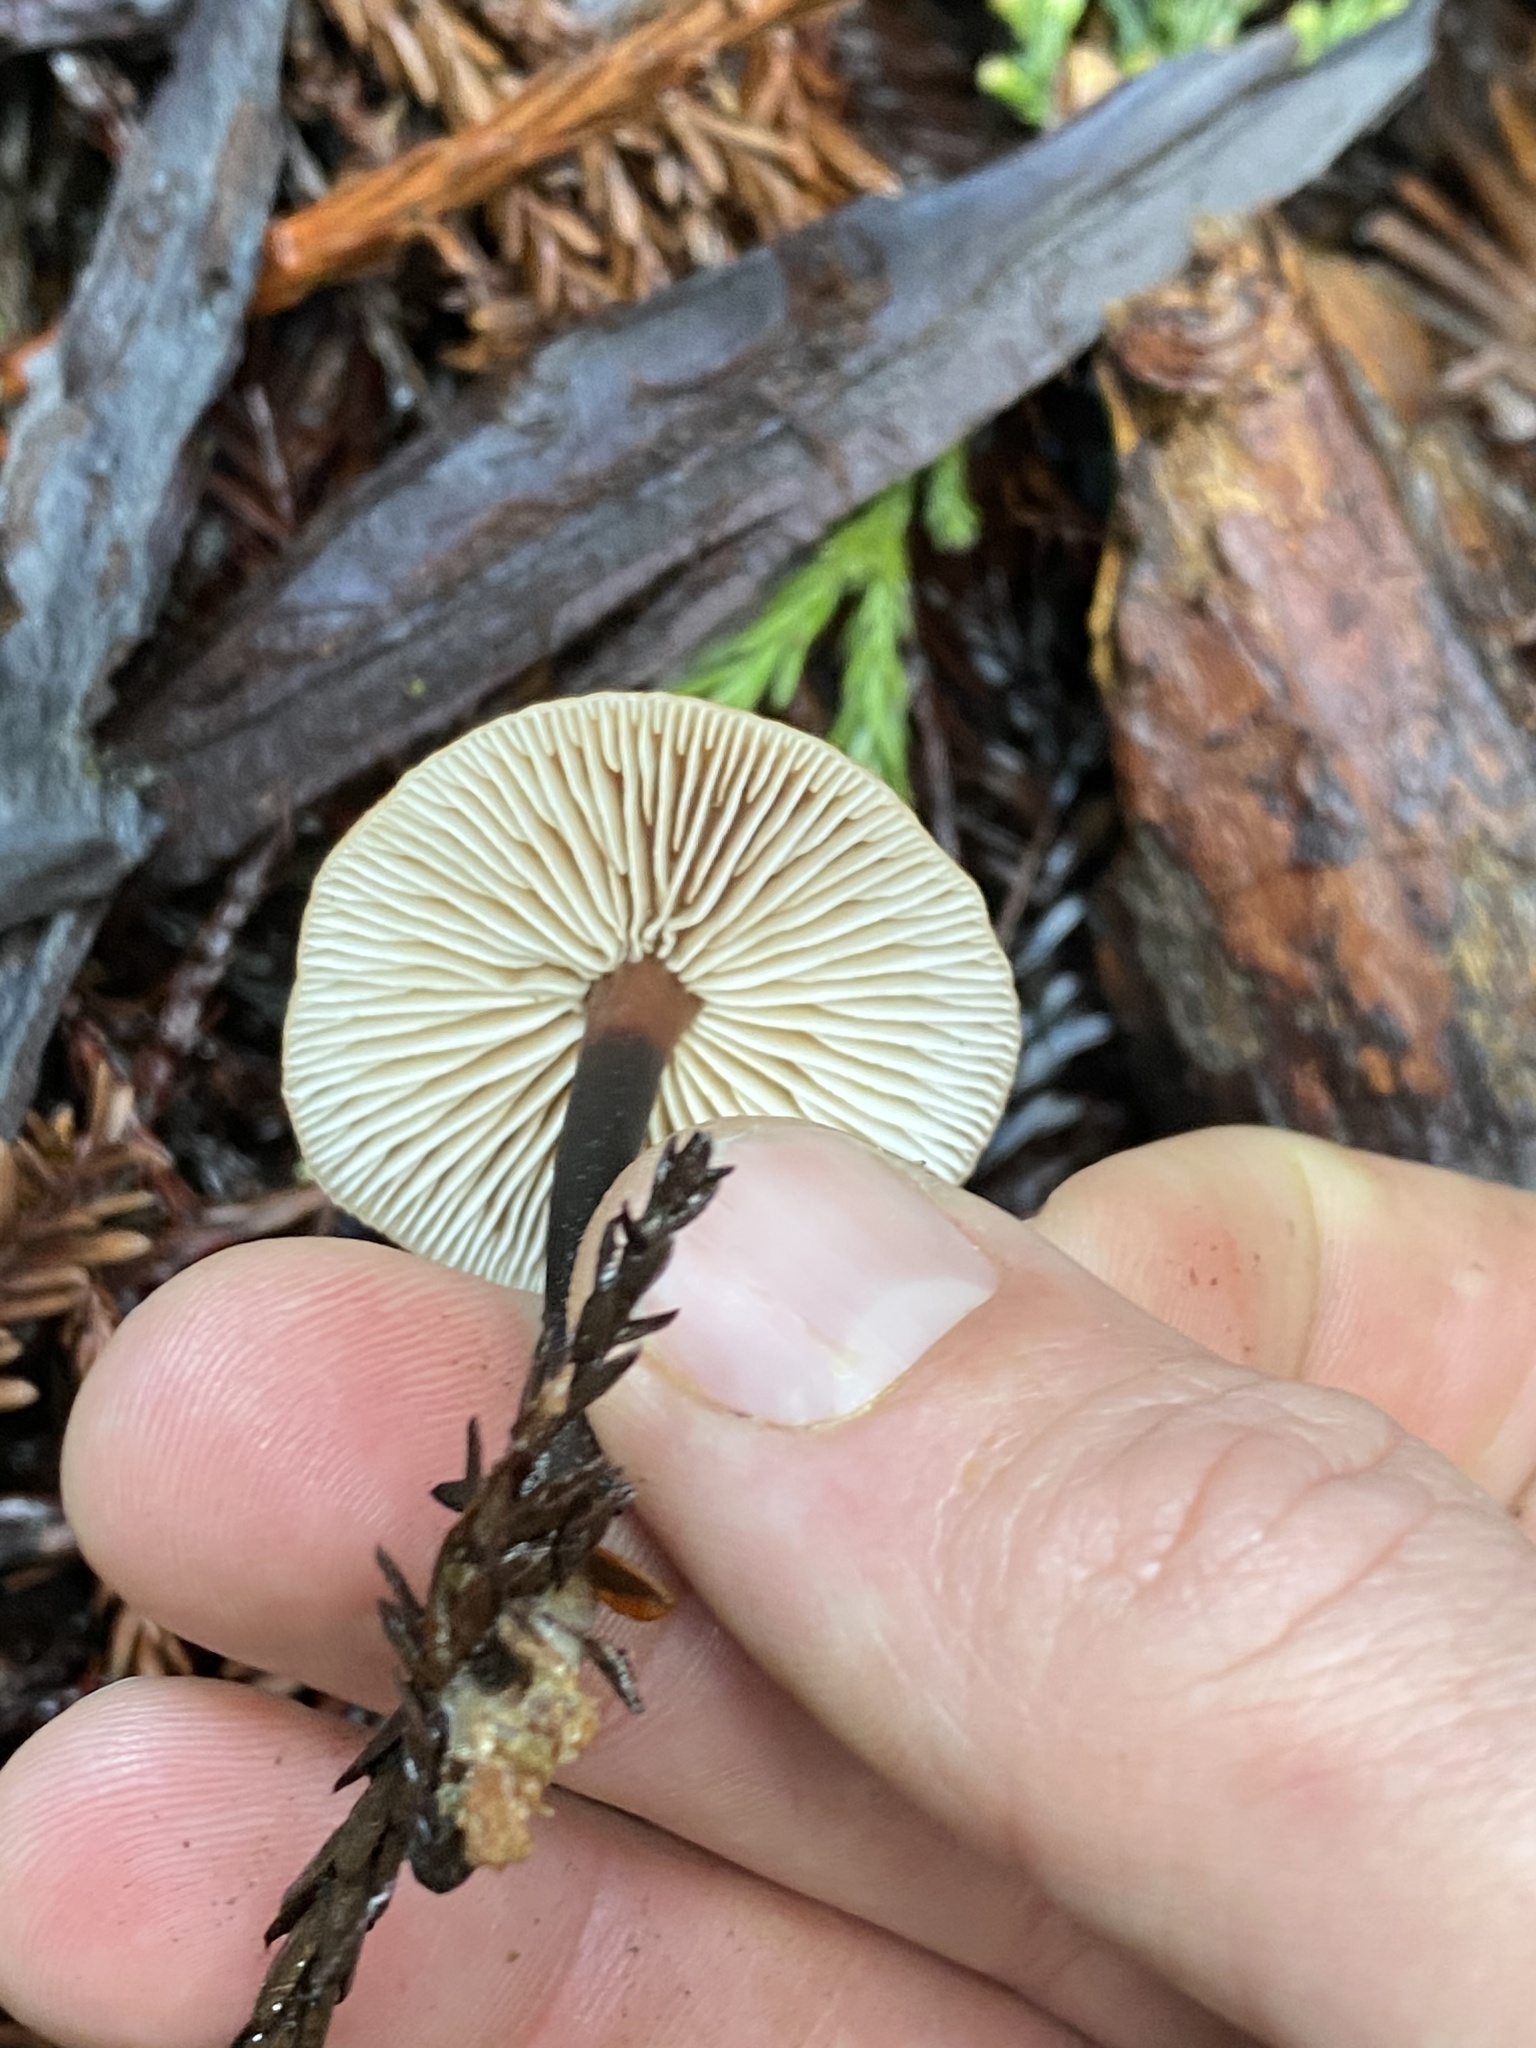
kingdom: Fungi
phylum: Basidiomycota
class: Agaricomycetes
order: Agaricales
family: Mycenaceae
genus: Xeromphalina
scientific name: Xeromphalina cauticinalis
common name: Pinelitter gingertail
